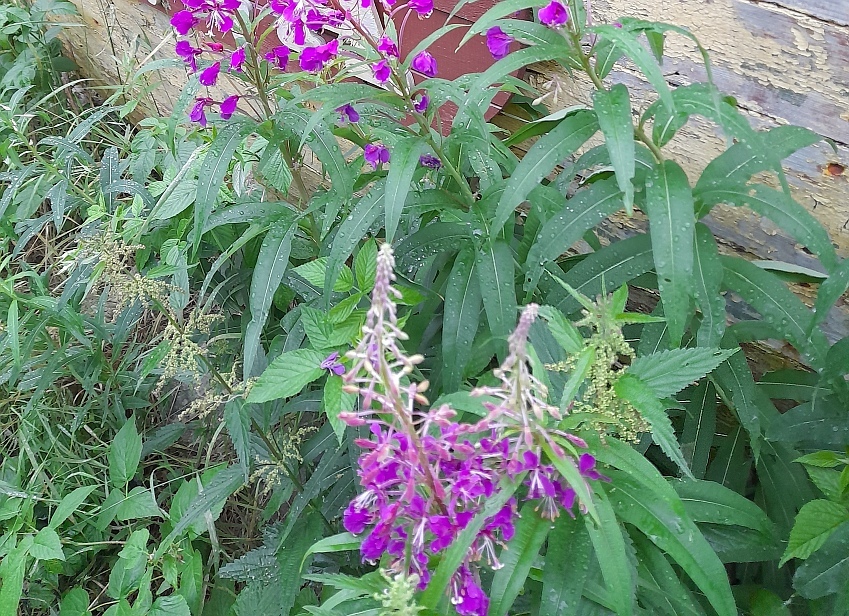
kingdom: Plantae
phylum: Tracheophyta
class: Magnoliopsida
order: Rosales
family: Rosaceae
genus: Rubus
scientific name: Rubus idaeus
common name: Raspberry
